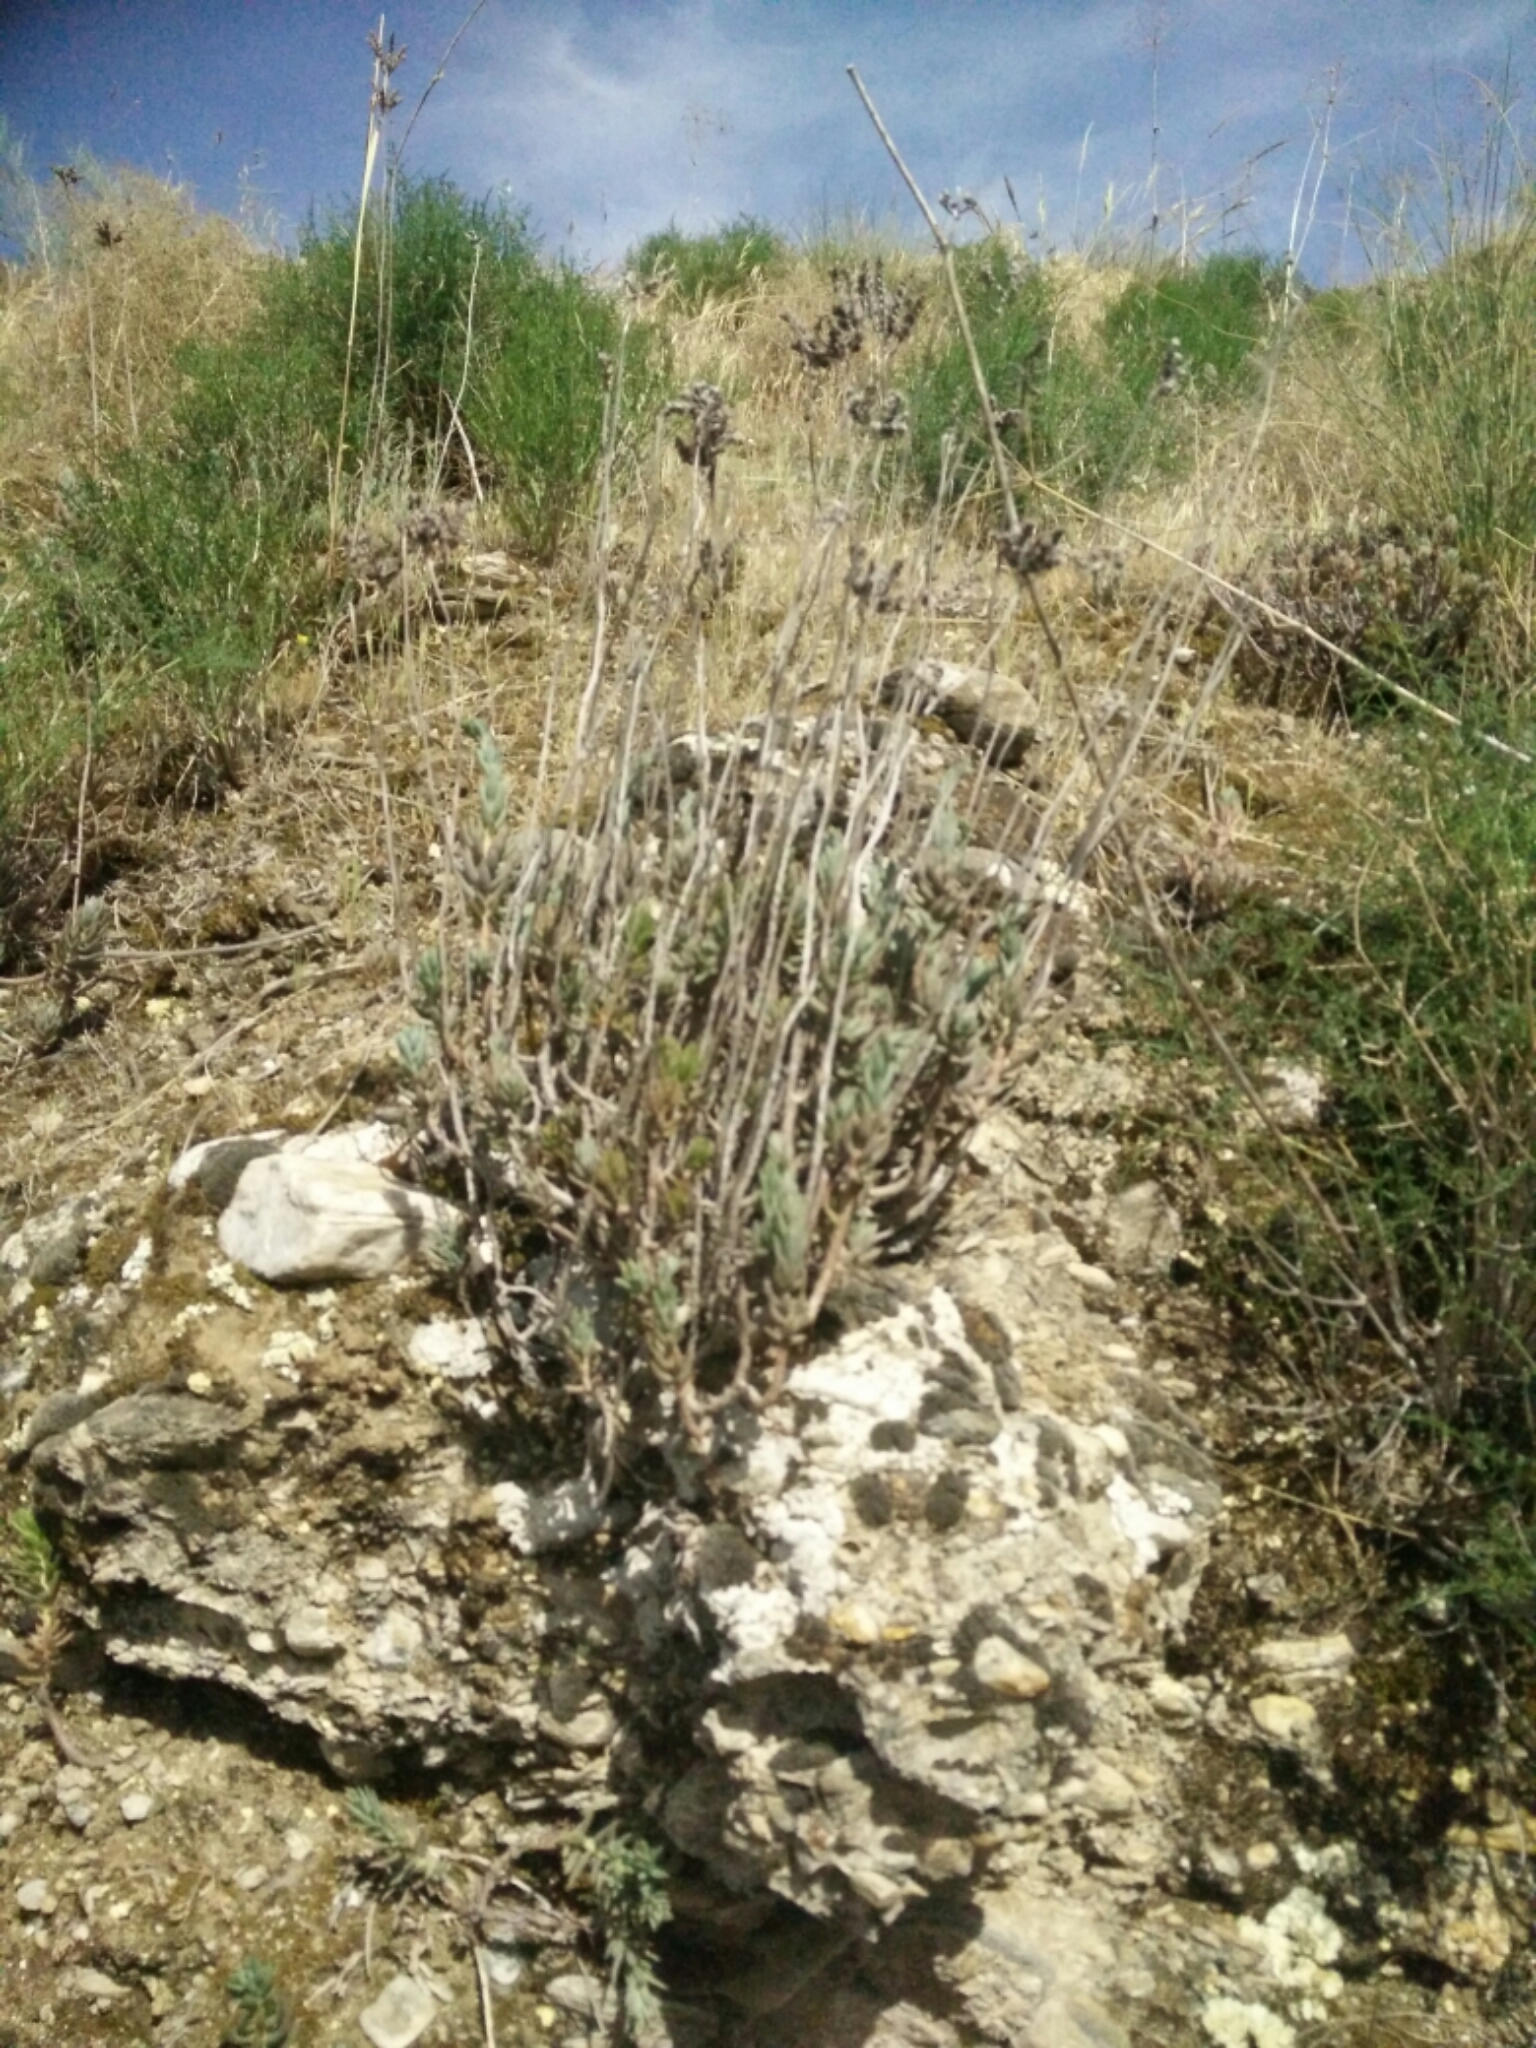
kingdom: Plantae
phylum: Tracheophyta
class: Magnoliopsida
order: Saxifragales
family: Crassulaceae
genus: Petrosedum
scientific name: Petrosedum sediforme
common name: Pale stonecrop
